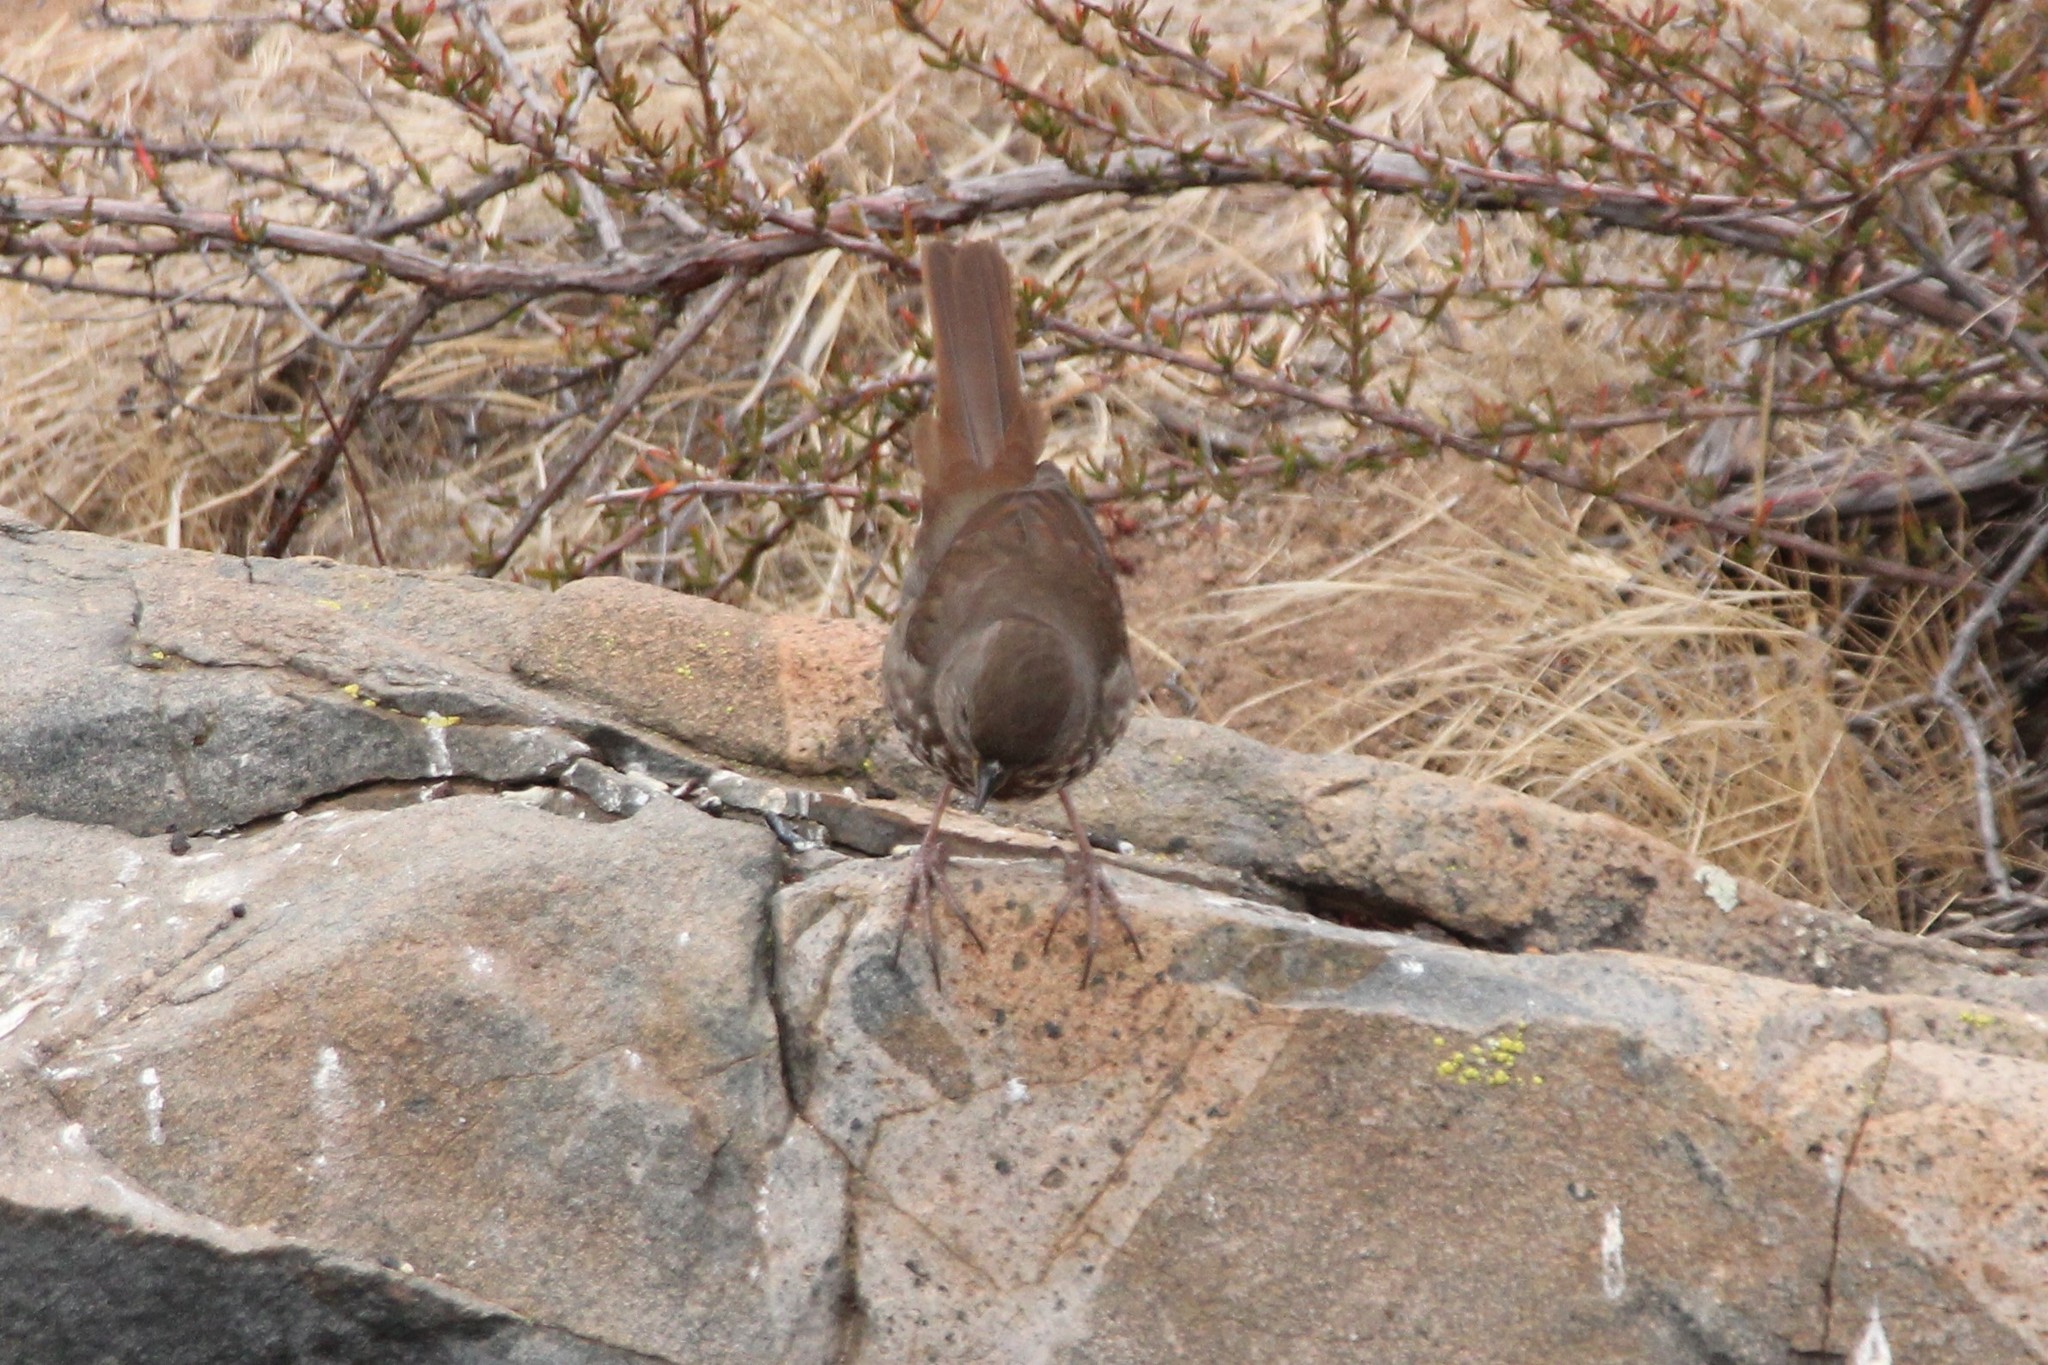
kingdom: Animalia
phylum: Chordata
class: Aves
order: Passeriformes
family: Passerellidae
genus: Passerella
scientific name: Passerella iliaca
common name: Fox sparrow
